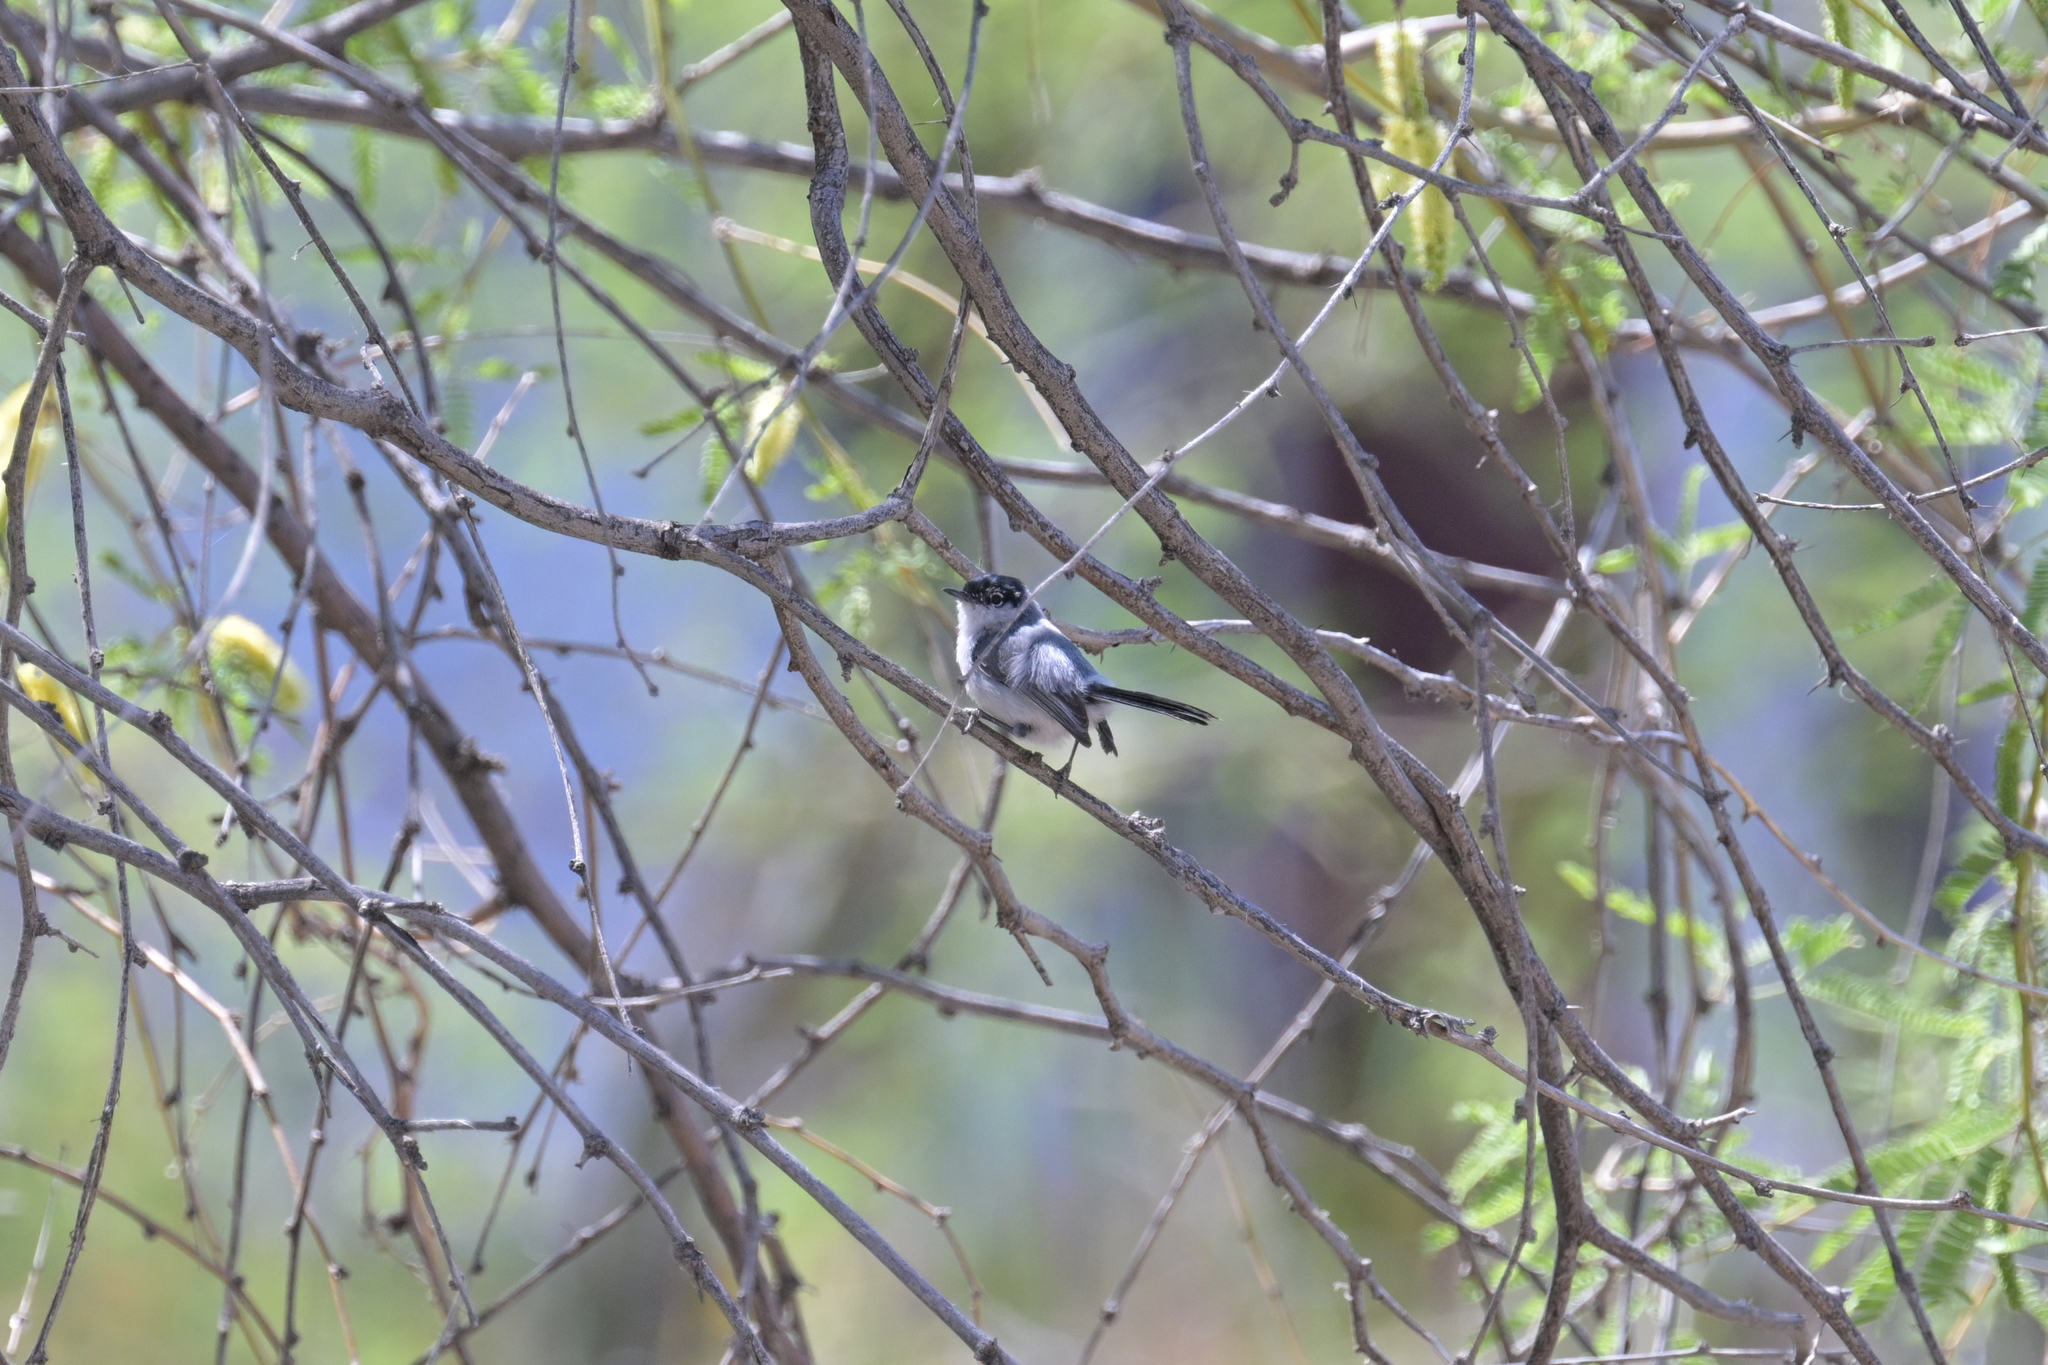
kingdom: Animalia
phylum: Chordata
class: Aves
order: Passeriformes
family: Polioptilidae
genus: Polioptila
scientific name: Polioptila melanura
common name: Black-tailed gnatcatcher
